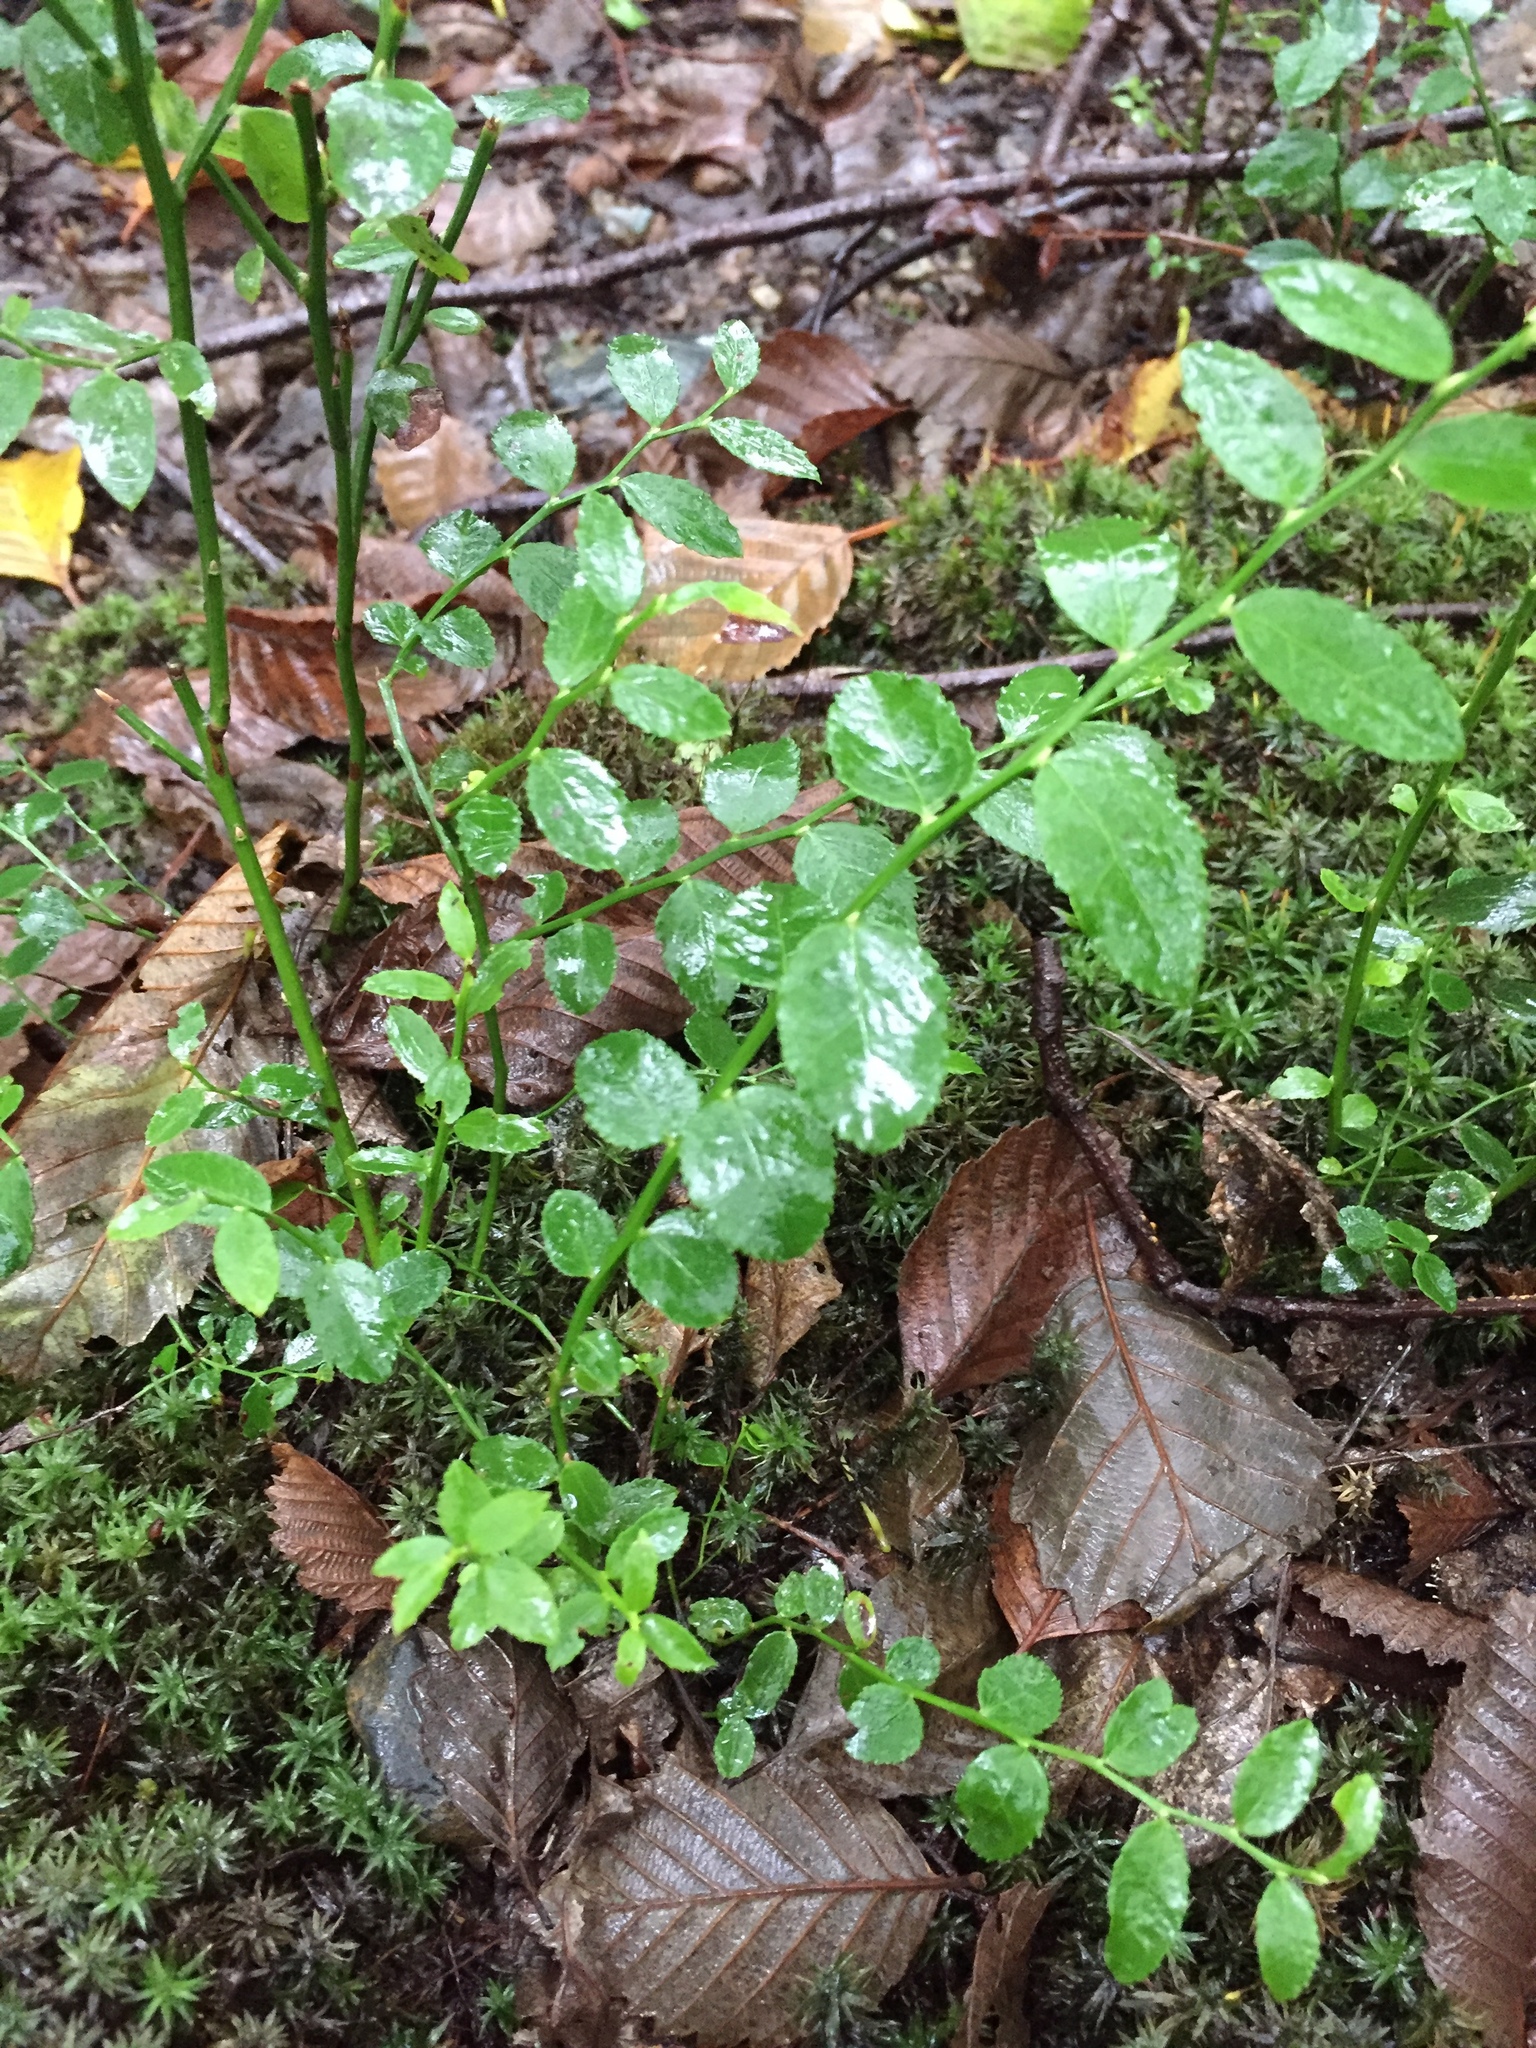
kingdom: Plantae
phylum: Tracheophyta
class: Magnoliopsida
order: Ericales
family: Ericaceae
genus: Vaccinium
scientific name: Vaccinium parvifolium
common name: Red-huckleberry
